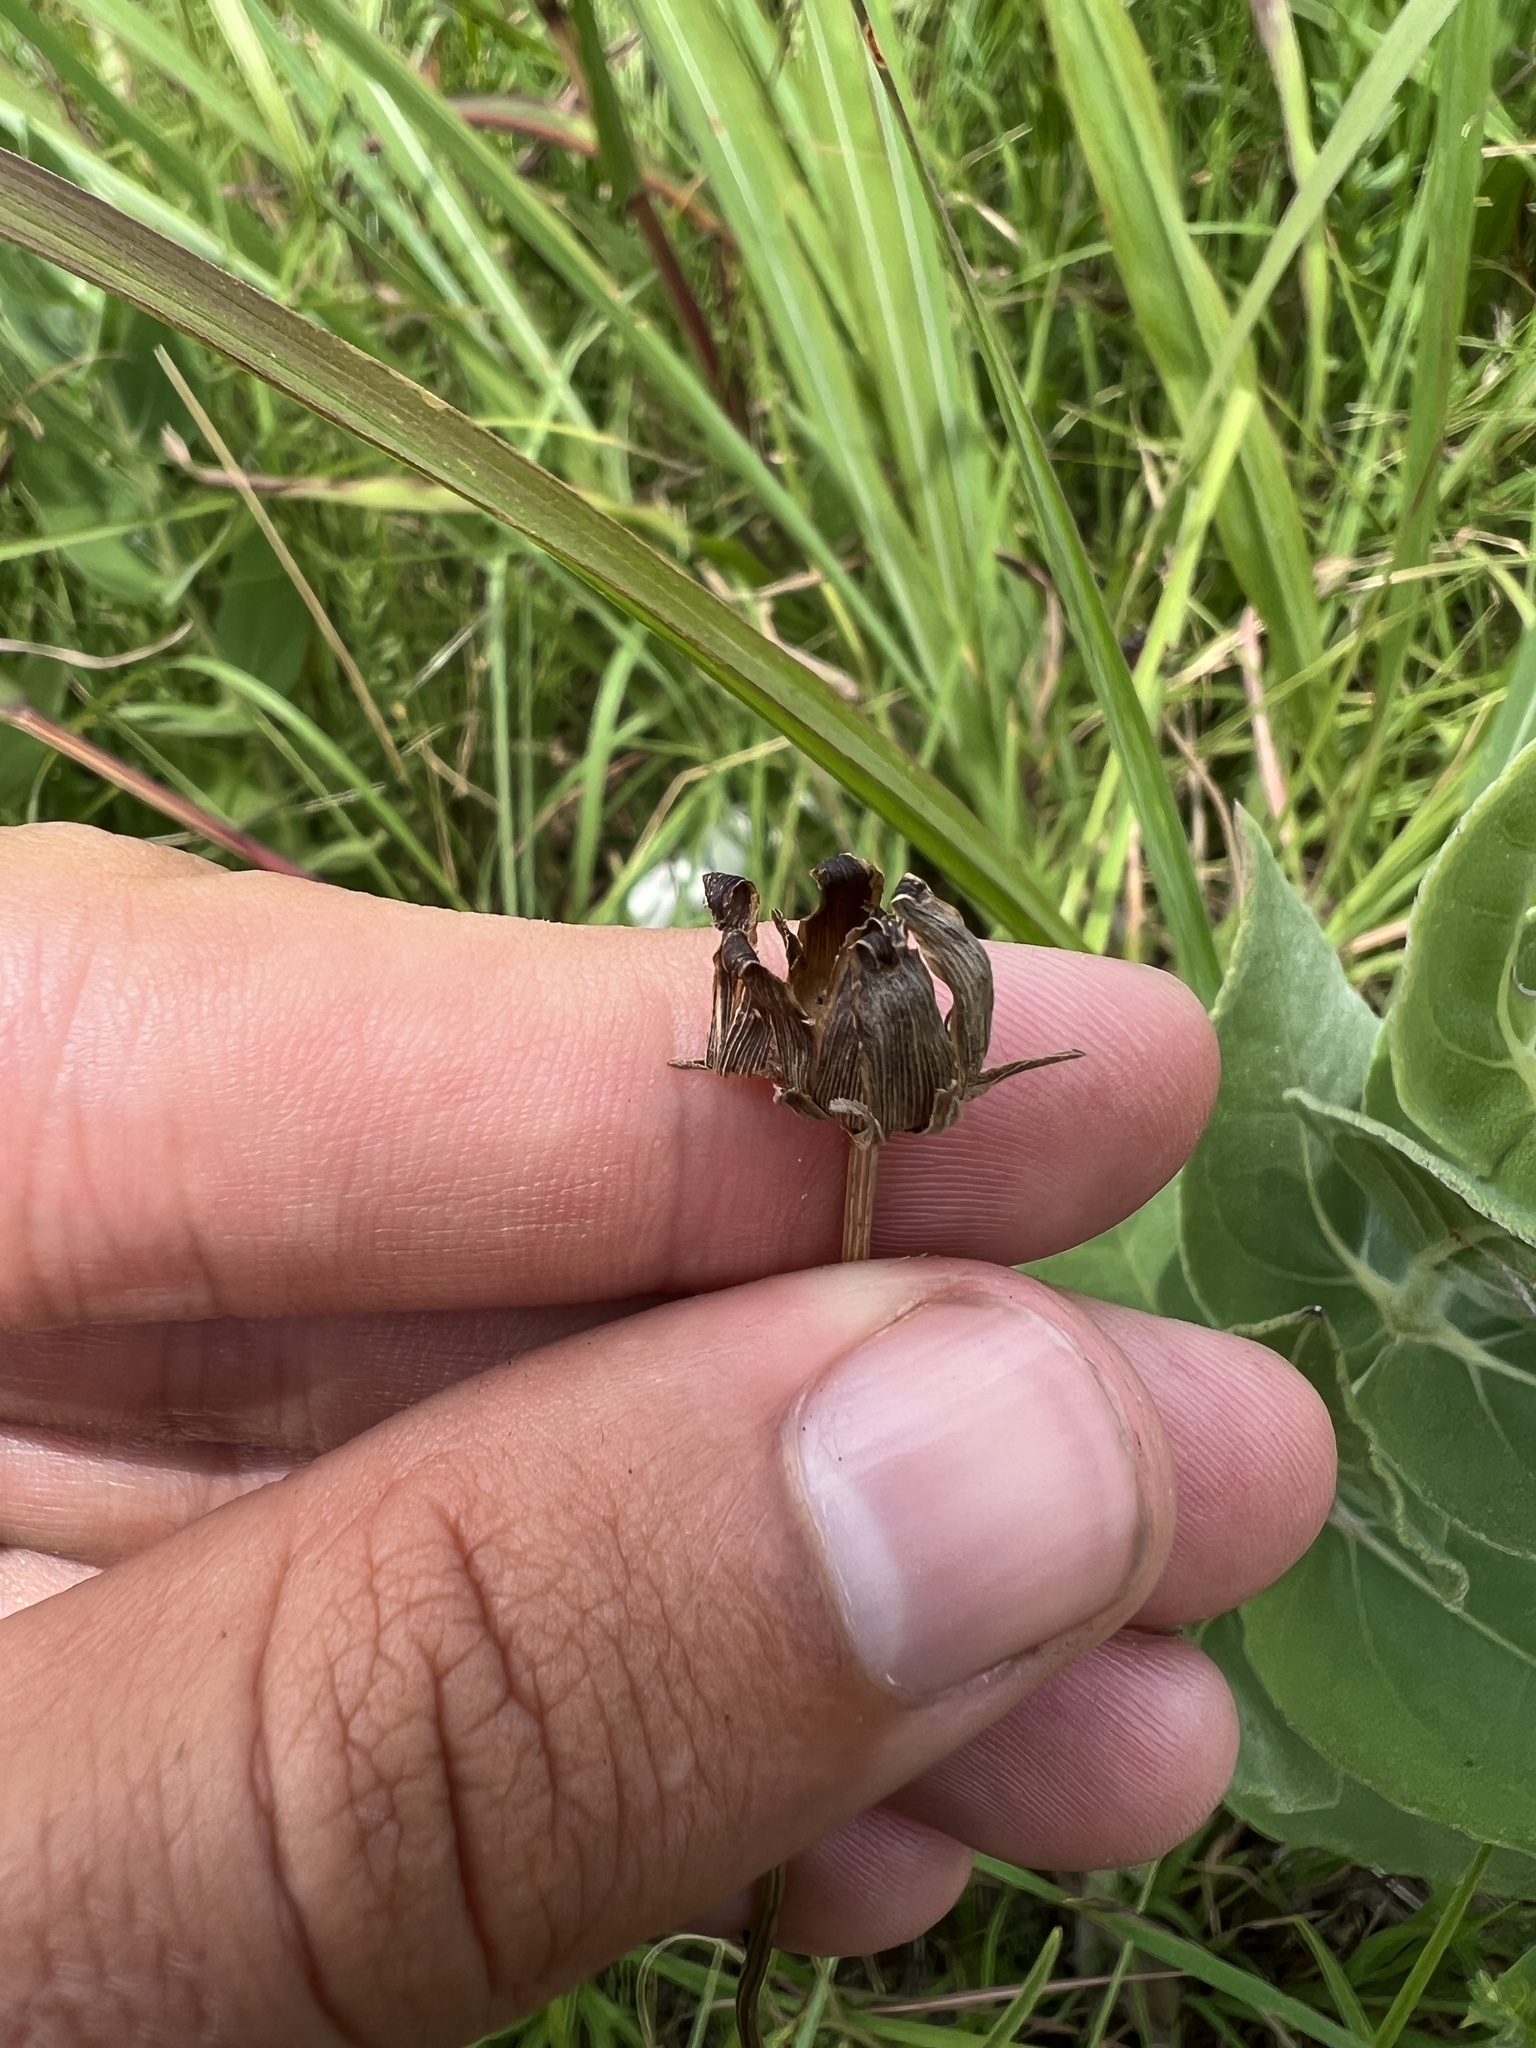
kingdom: Plantae
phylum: Tracheophyta
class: Magnoliopsida
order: Asterales
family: Asteraceae
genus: Coreopsis
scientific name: Coreopsis grandiflora
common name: Large-flowered tickseed
